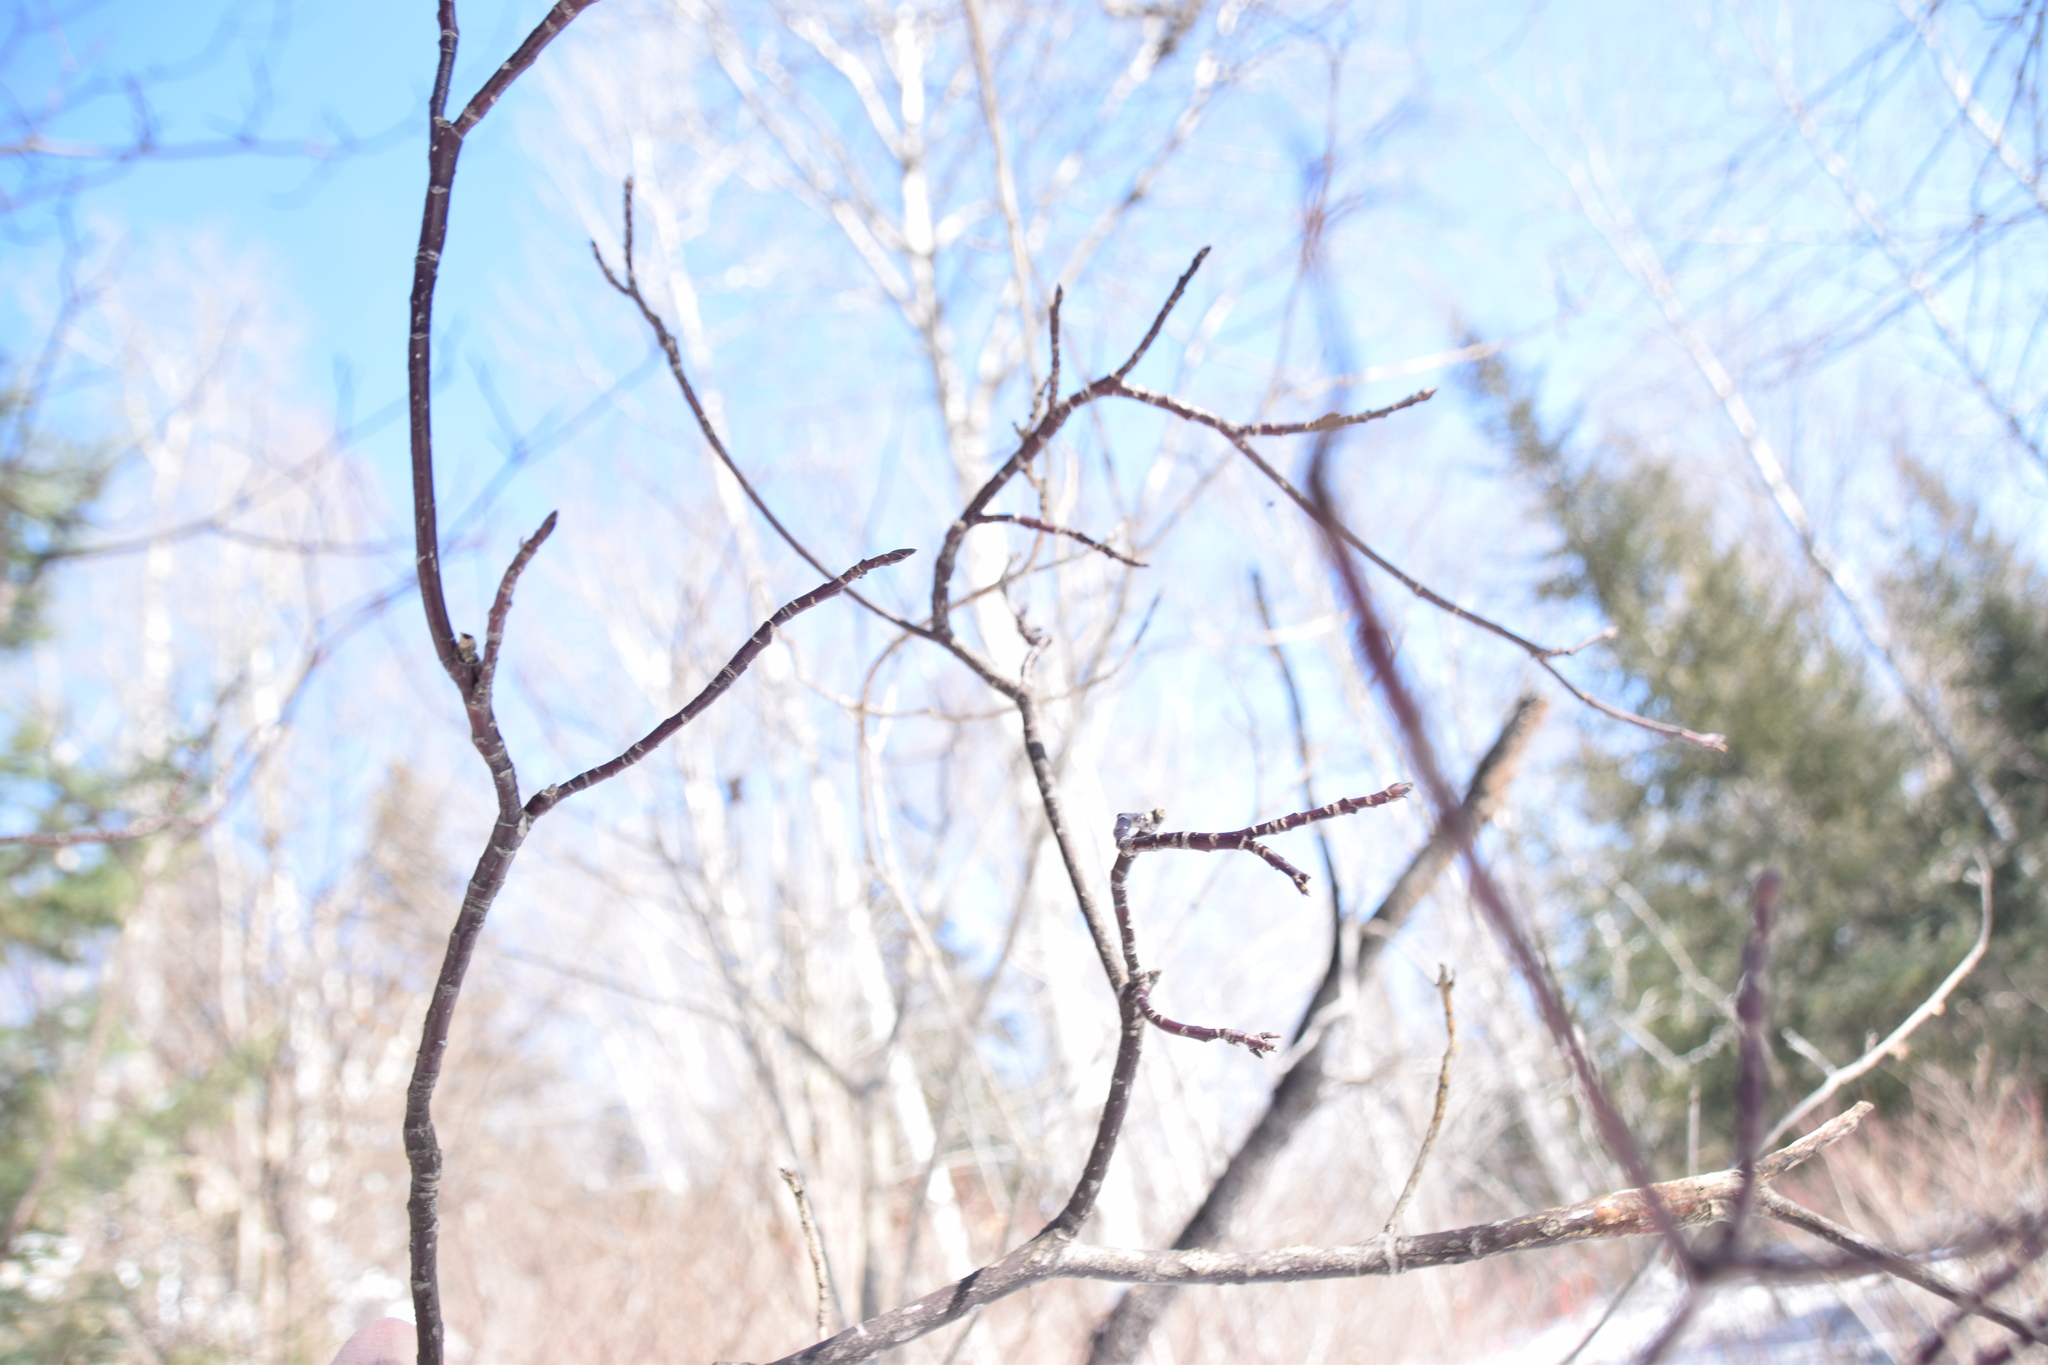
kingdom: Plantae
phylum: Tracheophyta
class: Magnoliopsida
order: Cornales
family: Cornaceae
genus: Cornus
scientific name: Cornus alternifolia
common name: Pagoda dogwood
